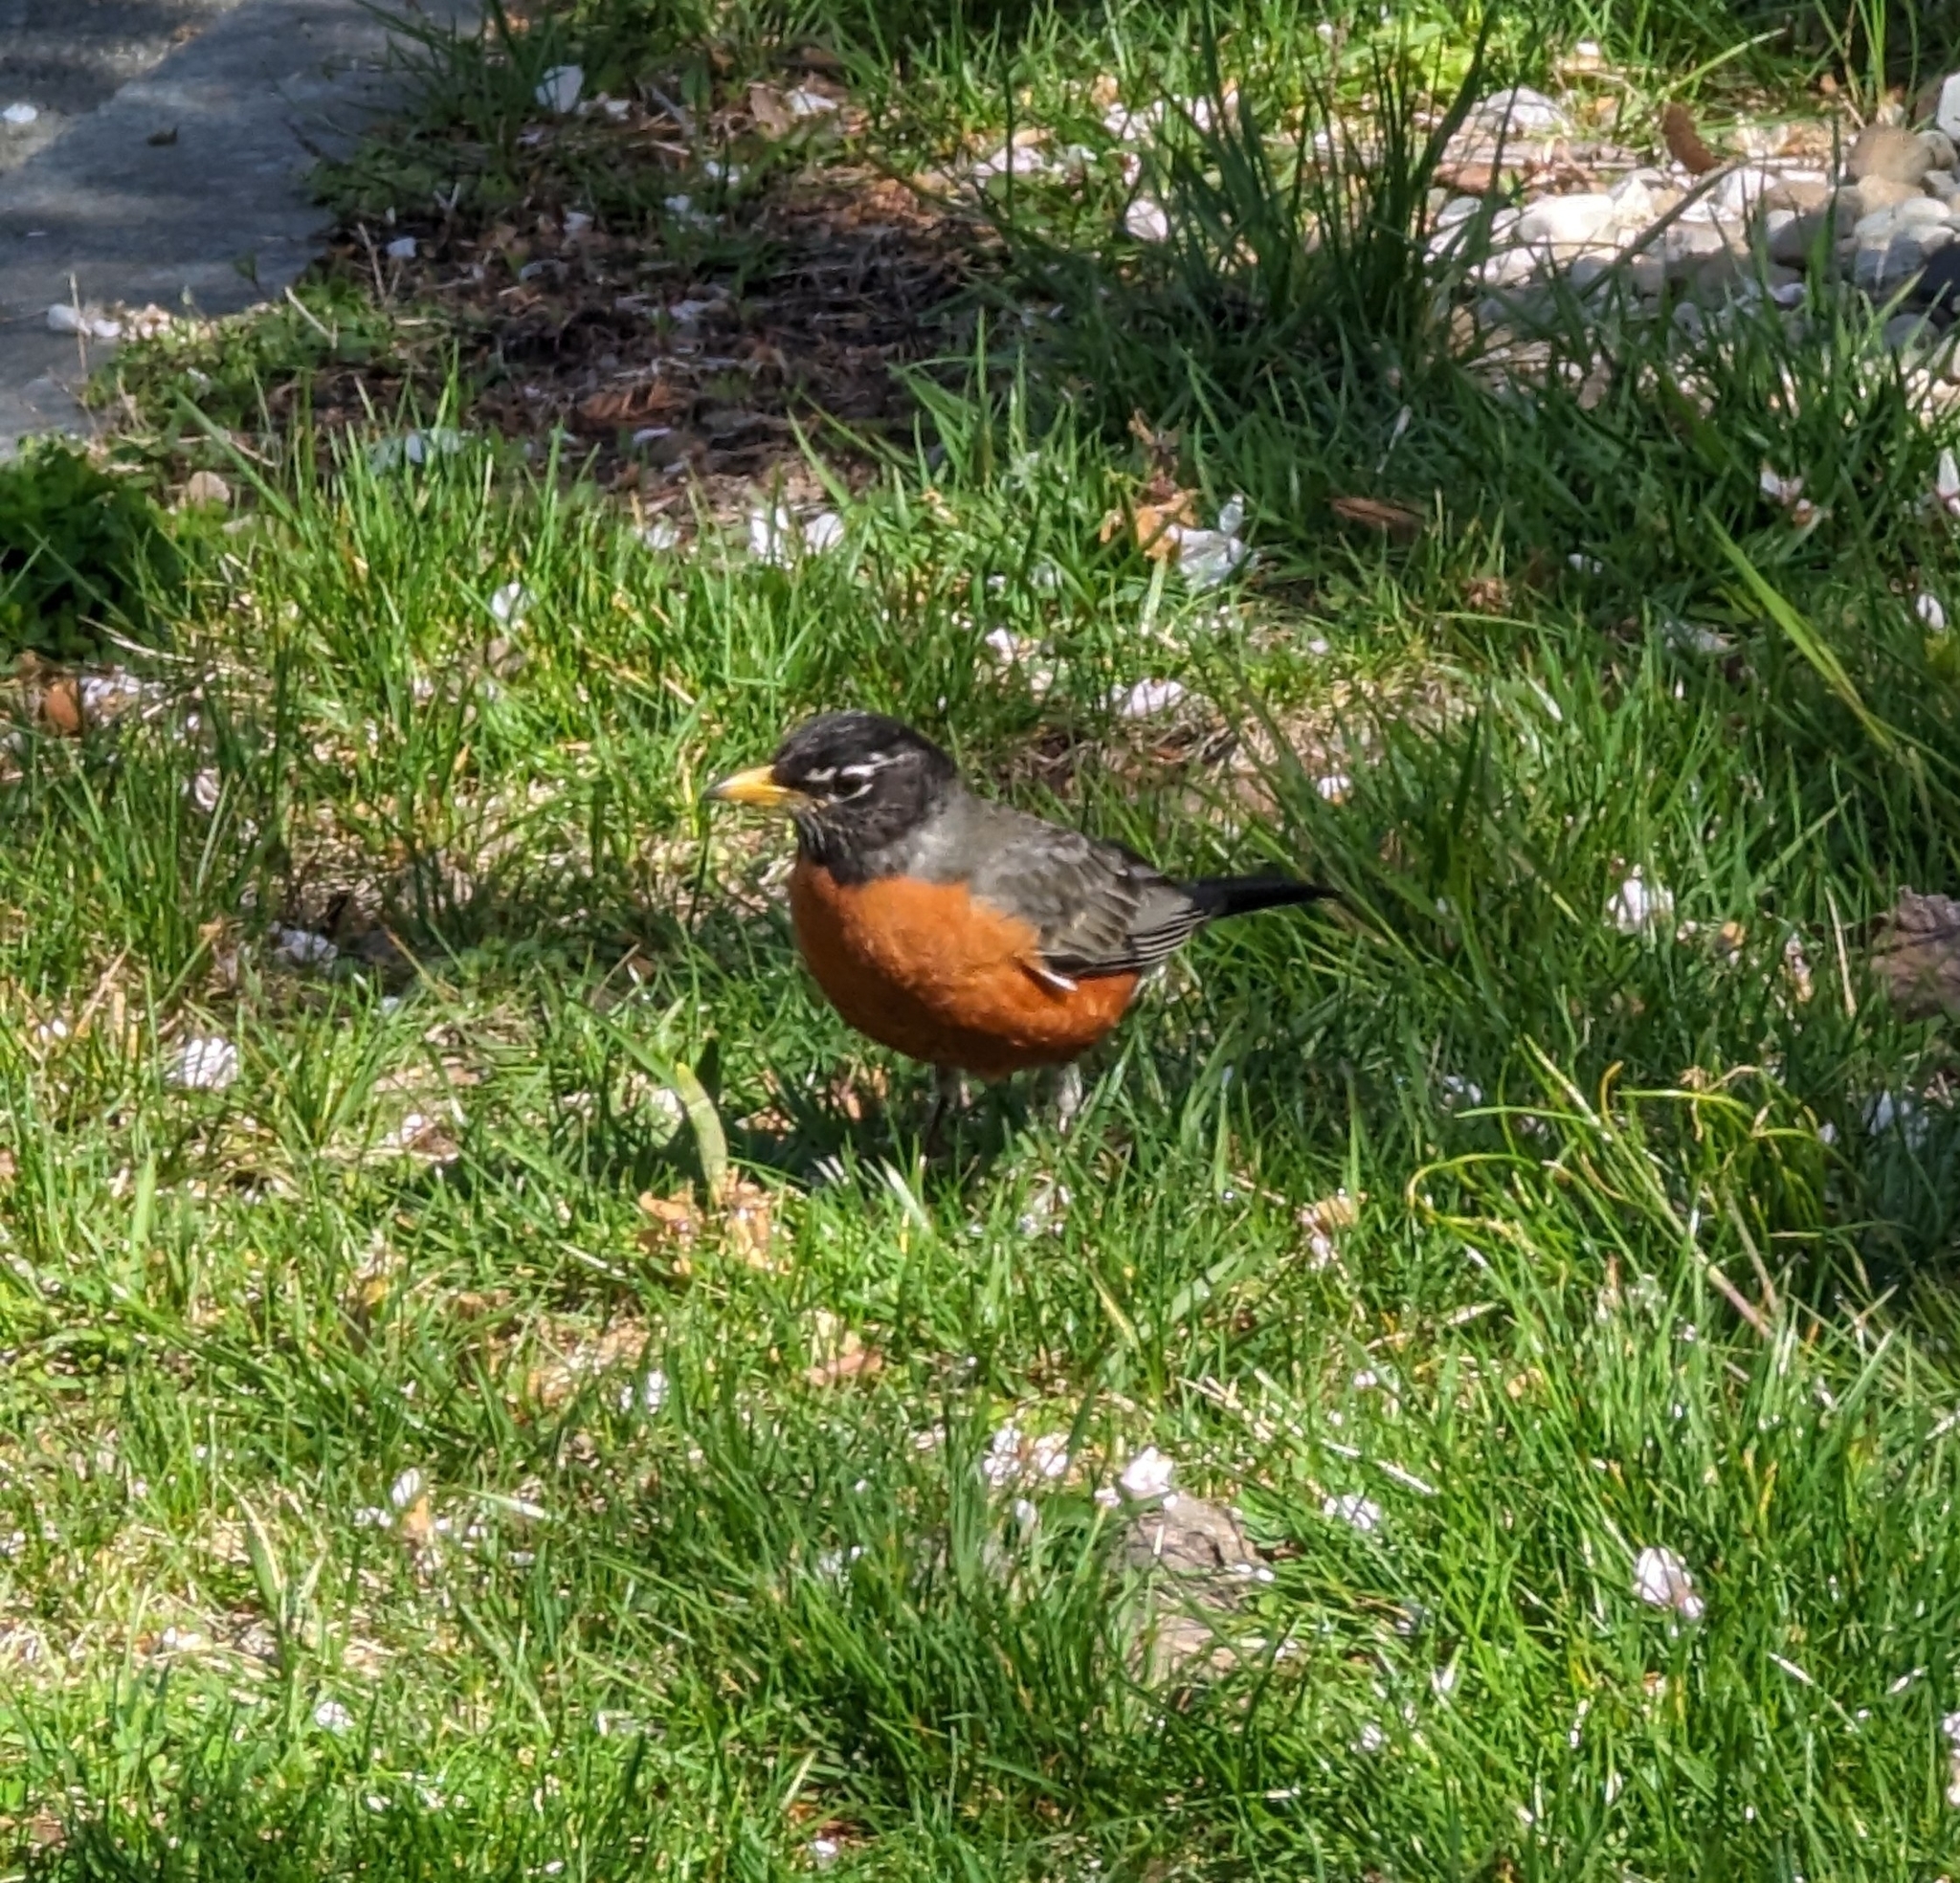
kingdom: Animalia
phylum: Chordata
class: Aves
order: Passeriformes
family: Turdidae
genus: Turdus
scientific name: Turdus migratorius
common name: American robin
